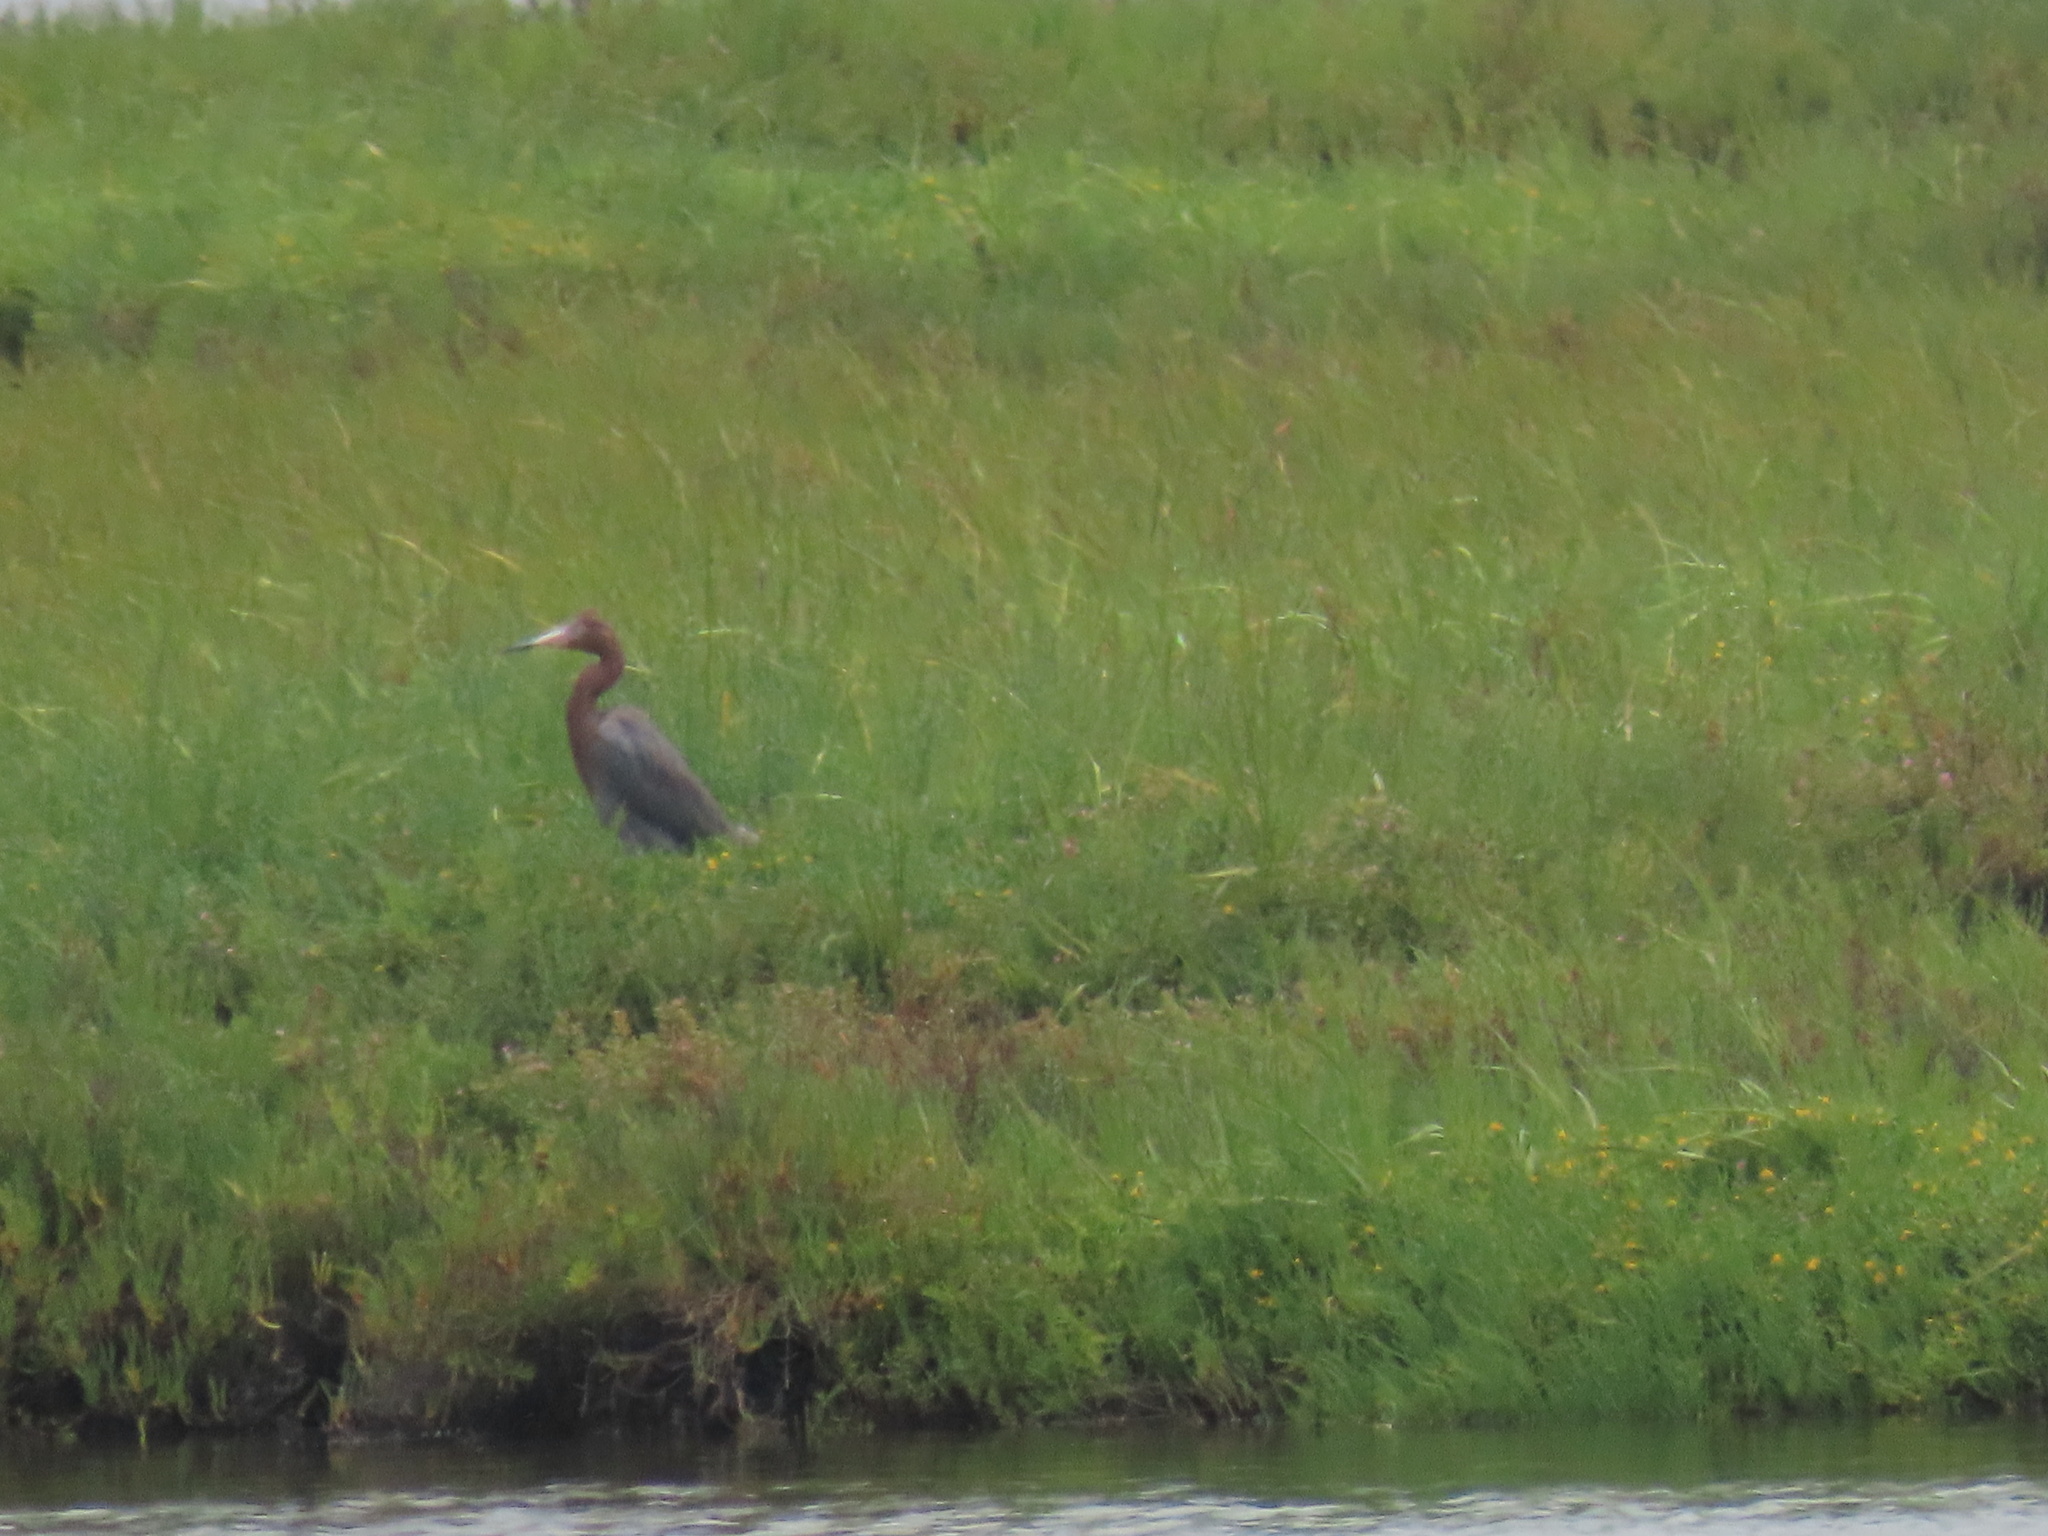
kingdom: Animalia
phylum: Chordata
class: Aves
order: Pelecaniformes
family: Ardeidae
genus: Egretta
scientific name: Egretta rufescens
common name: Reddish egret
